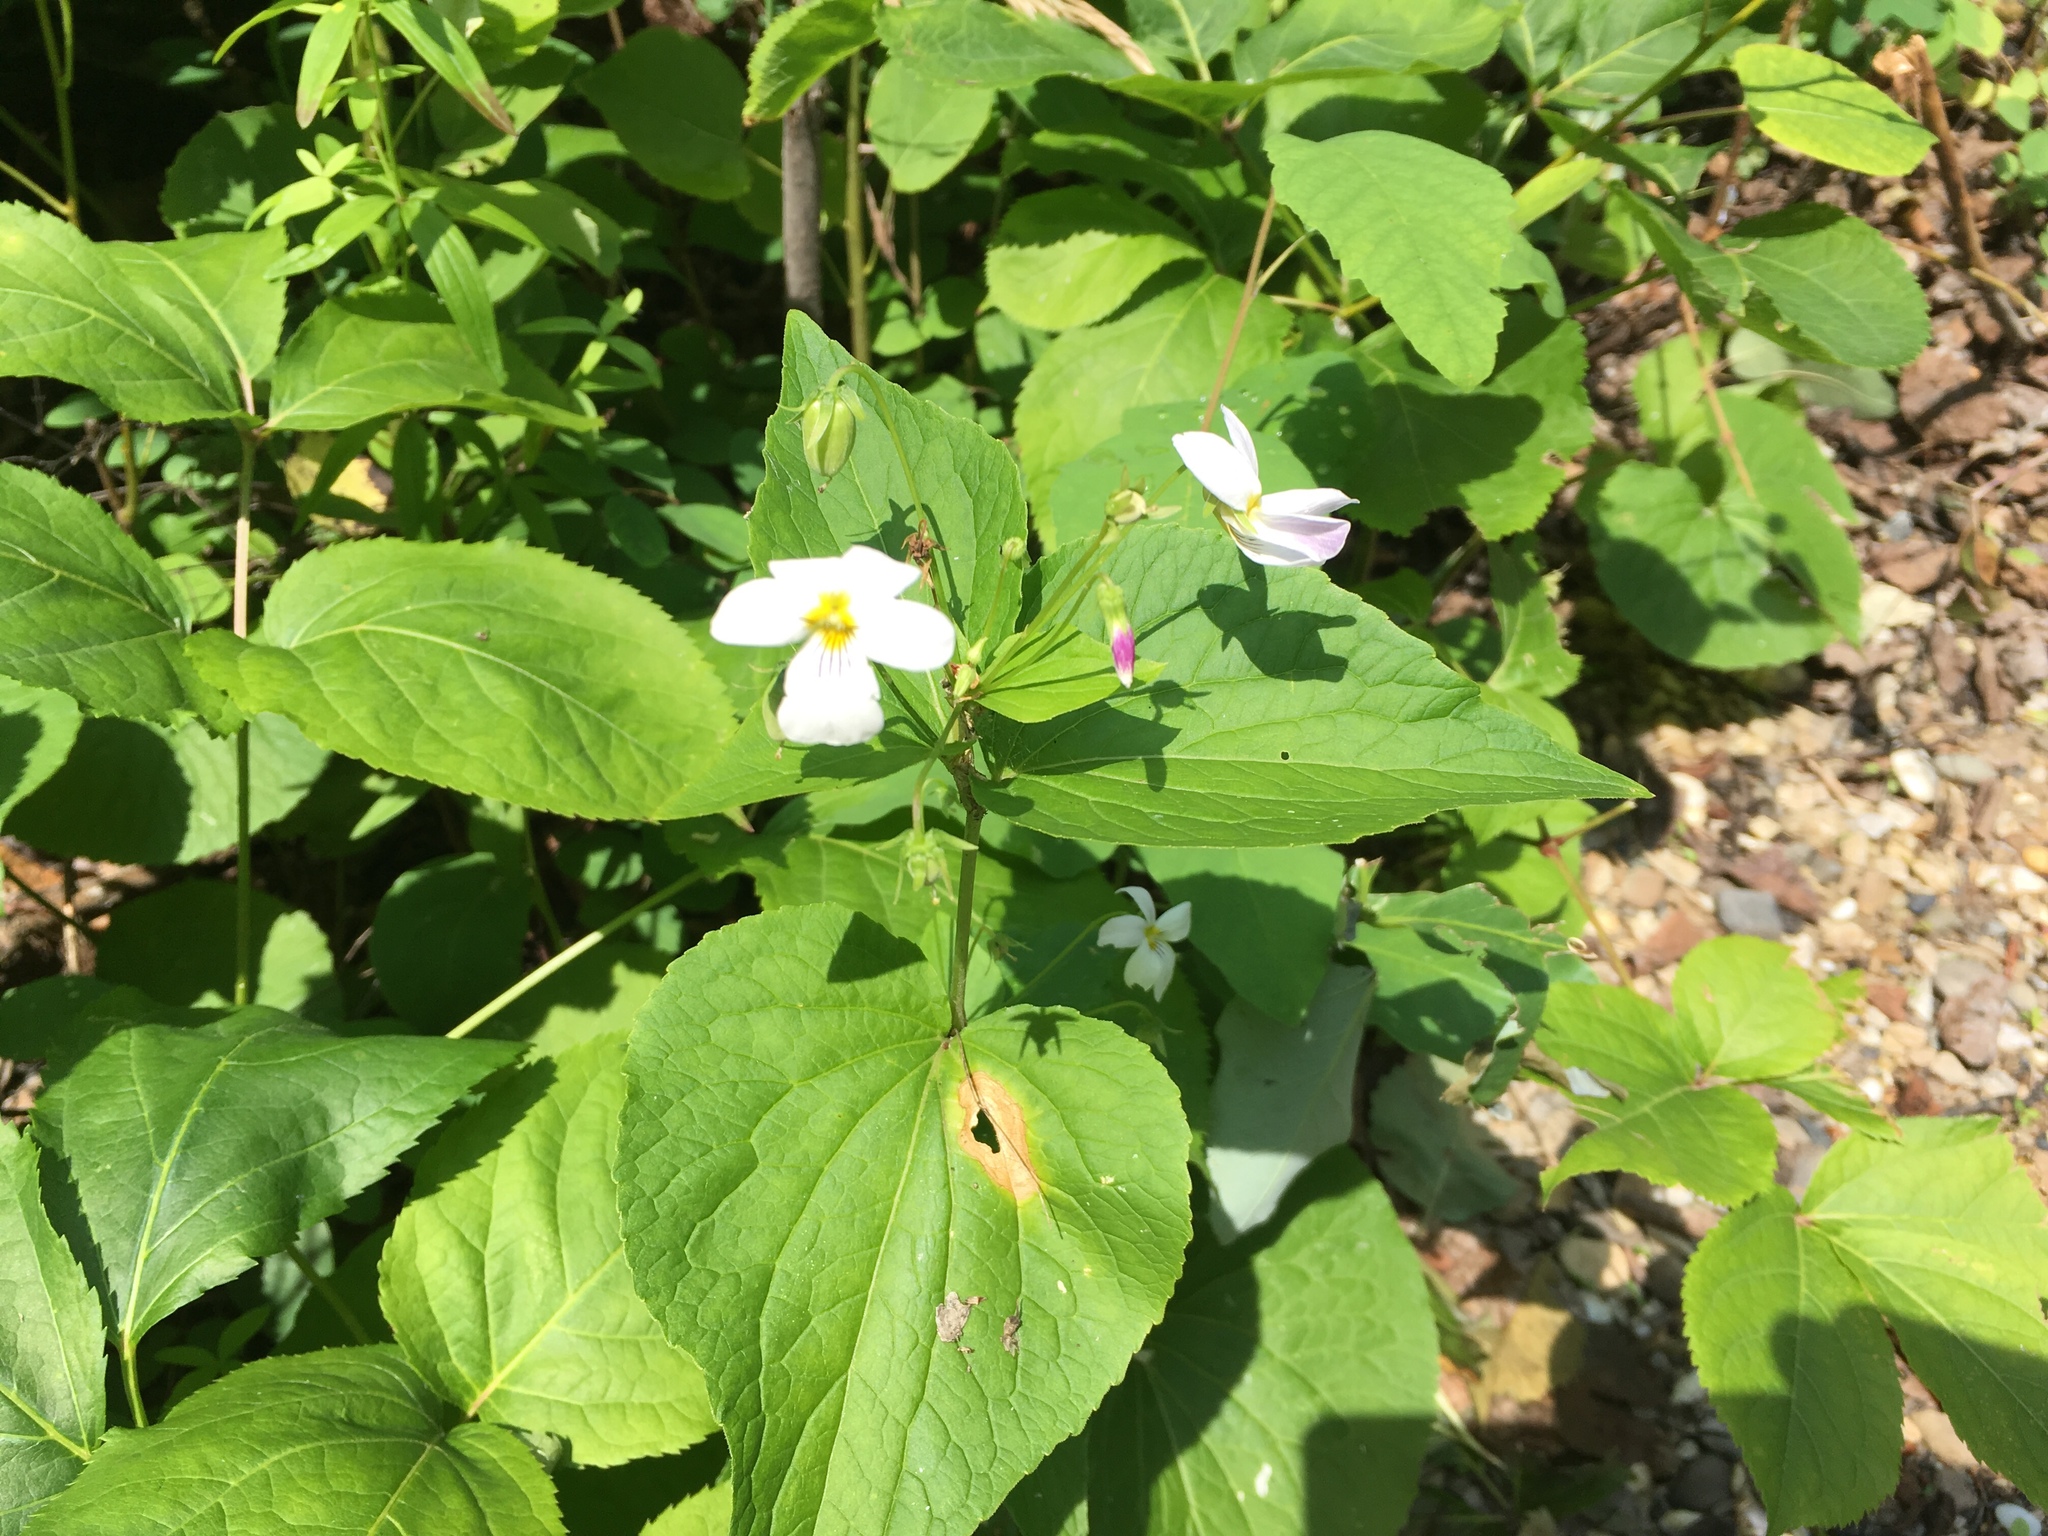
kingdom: Plantae
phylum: Tracheophyta
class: Magnoliopsida
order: Malpighiales
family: Violaceae
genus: Viola
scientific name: Viola canadensis
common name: Canada violet
